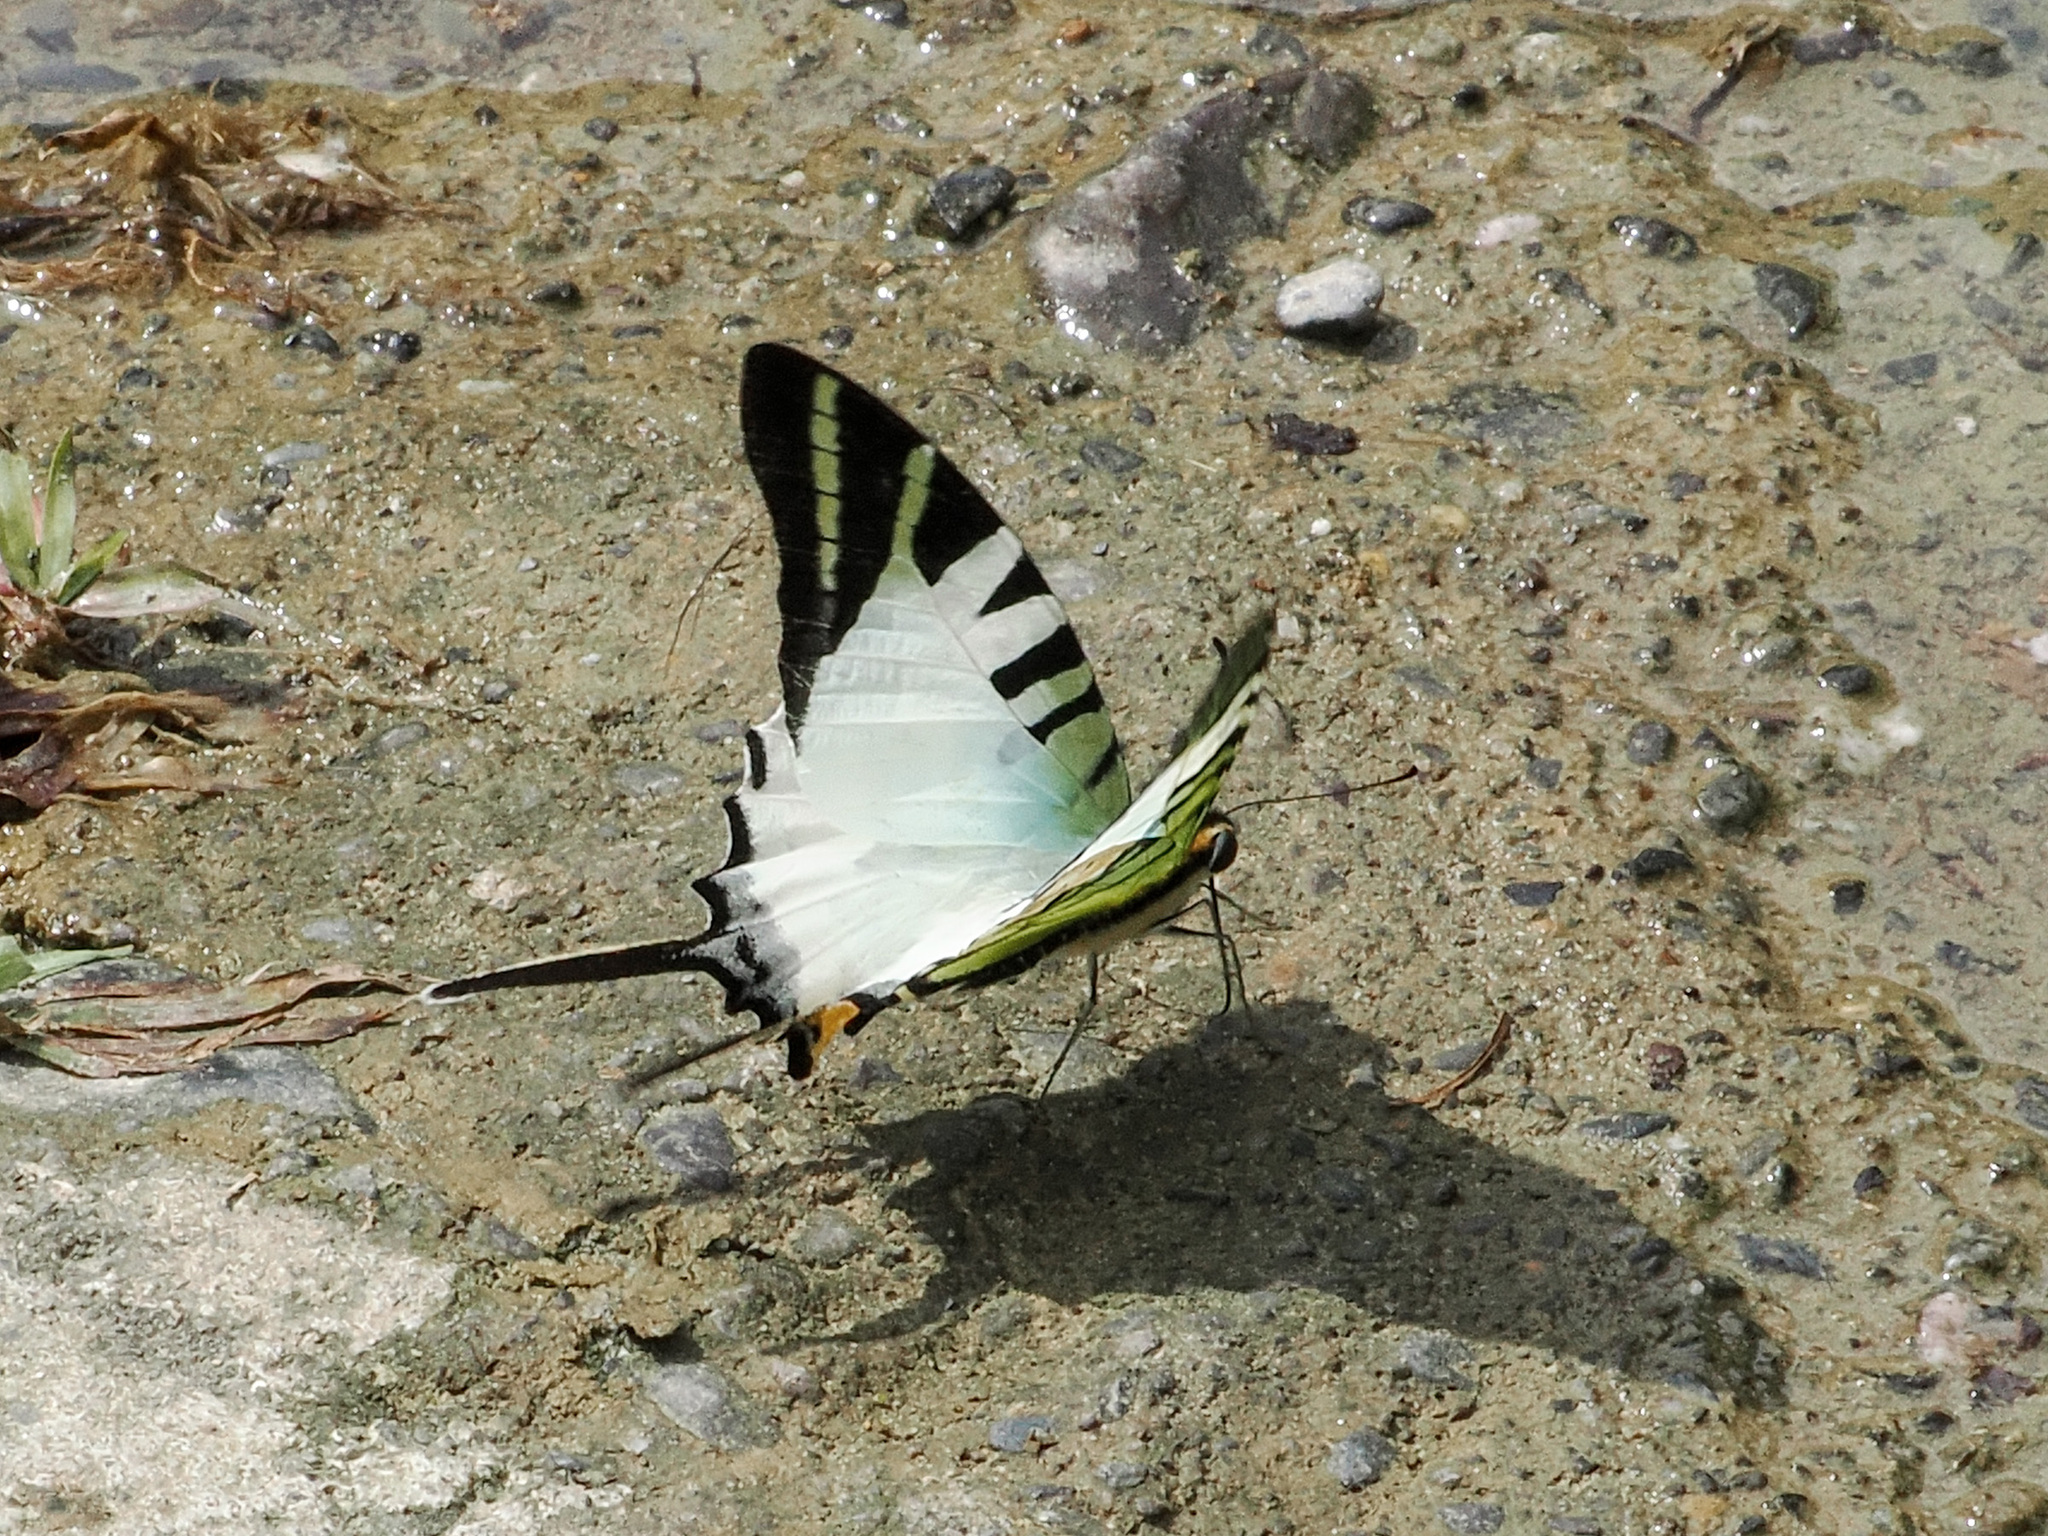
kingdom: Animalia
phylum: Arthropoda
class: Insecta
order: Lepidoptera
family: Papilionidae
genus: Graphium
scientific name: Graphium antiphates
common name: Fivebar swordtail
